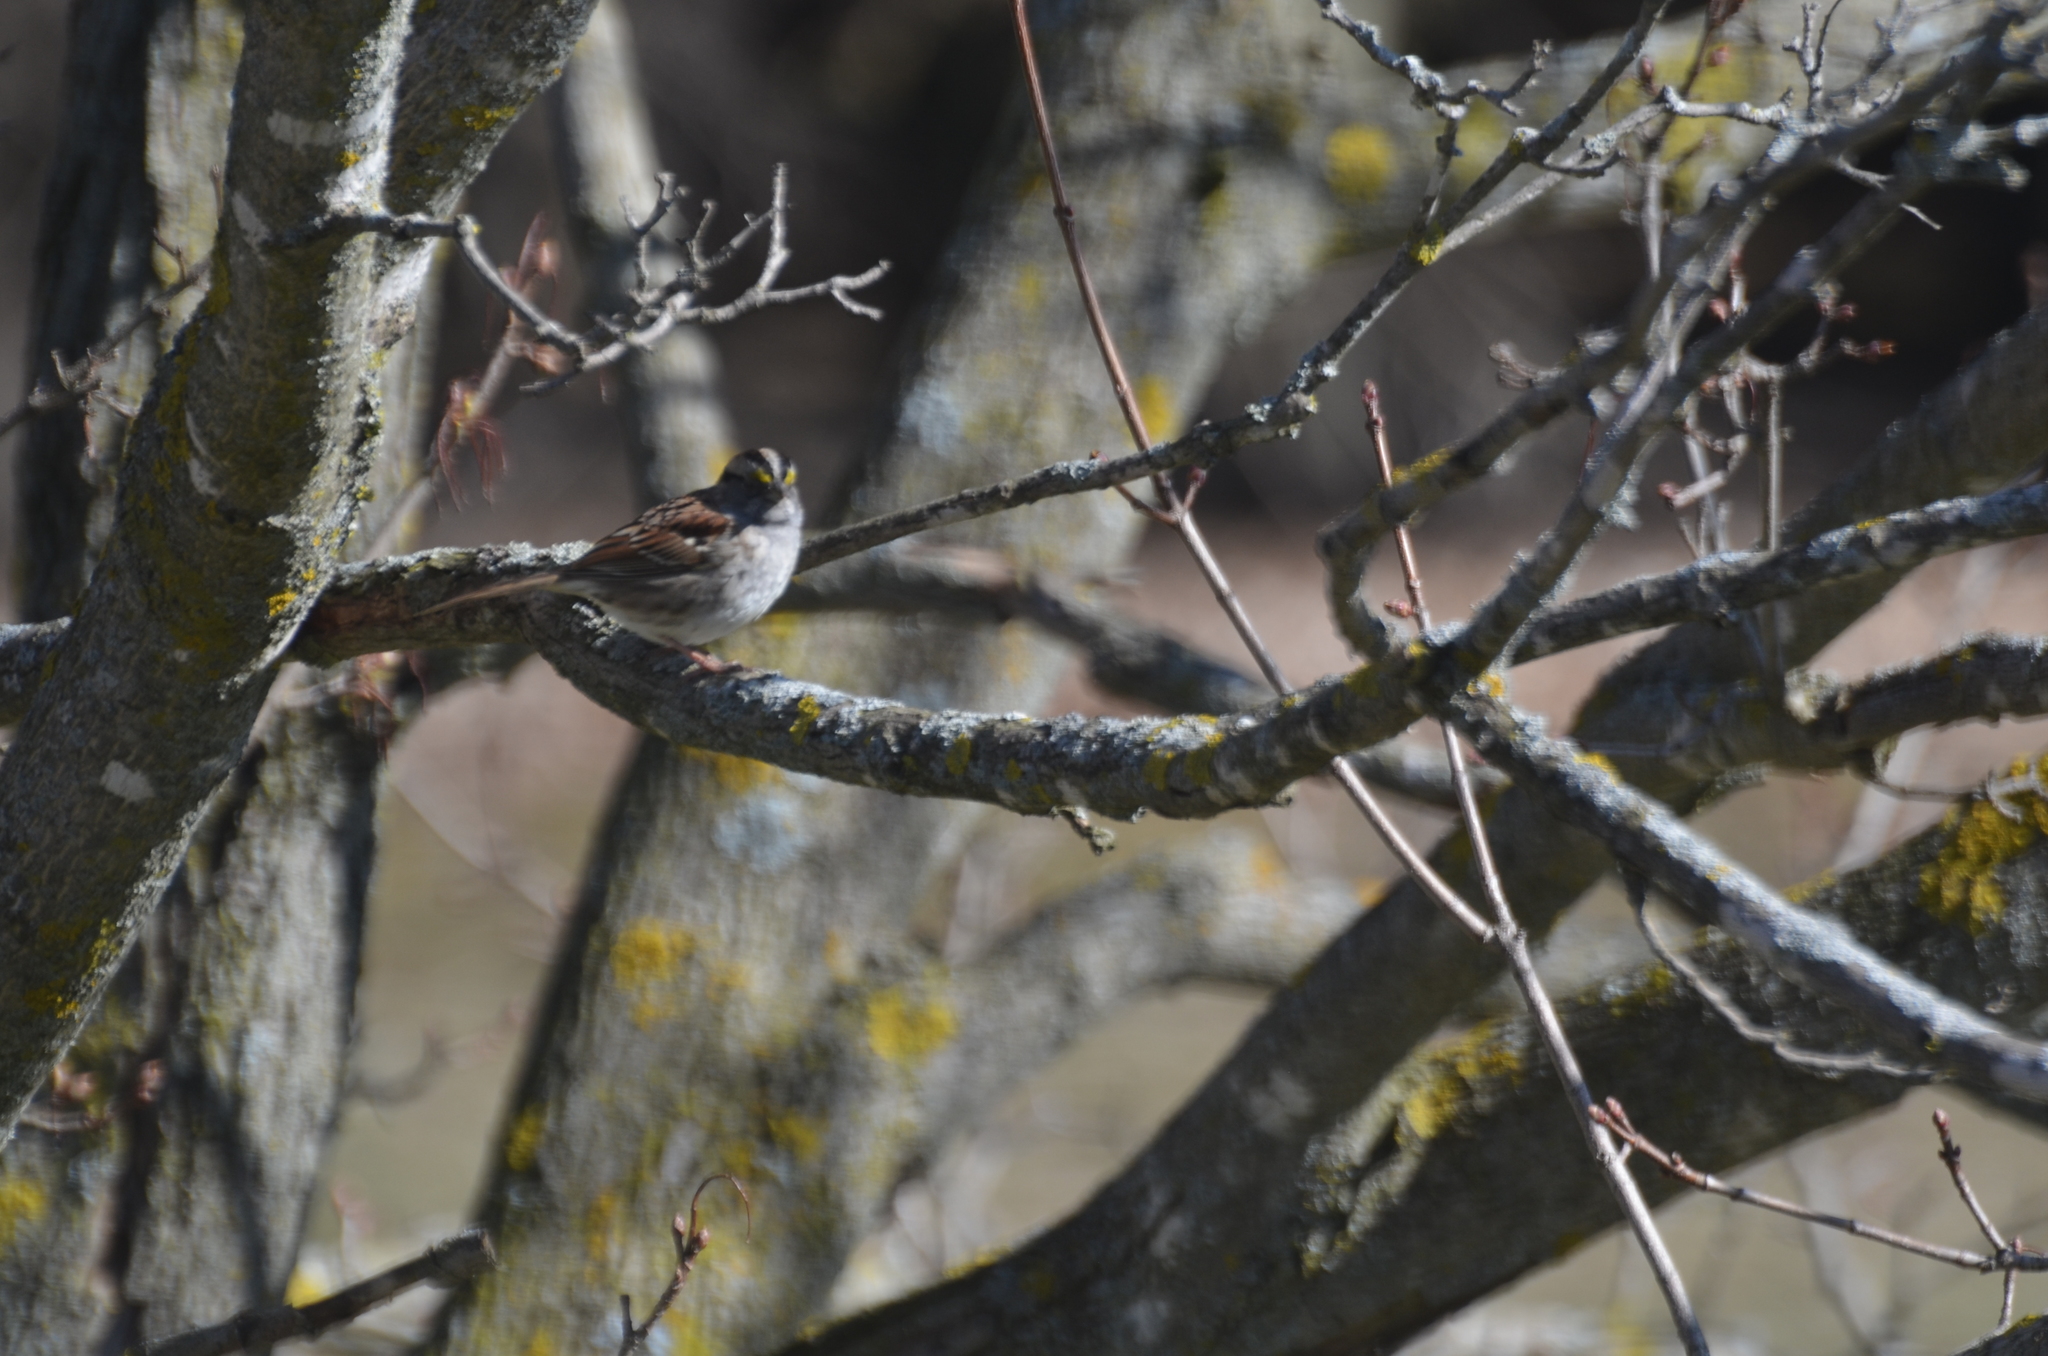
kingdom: Animalia
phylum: Chordata
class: Aves
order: Passeriformes
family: Passerellidae
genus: Zonotrichia
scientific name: Zonotrichia albicollis
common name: White-throated sparrow
